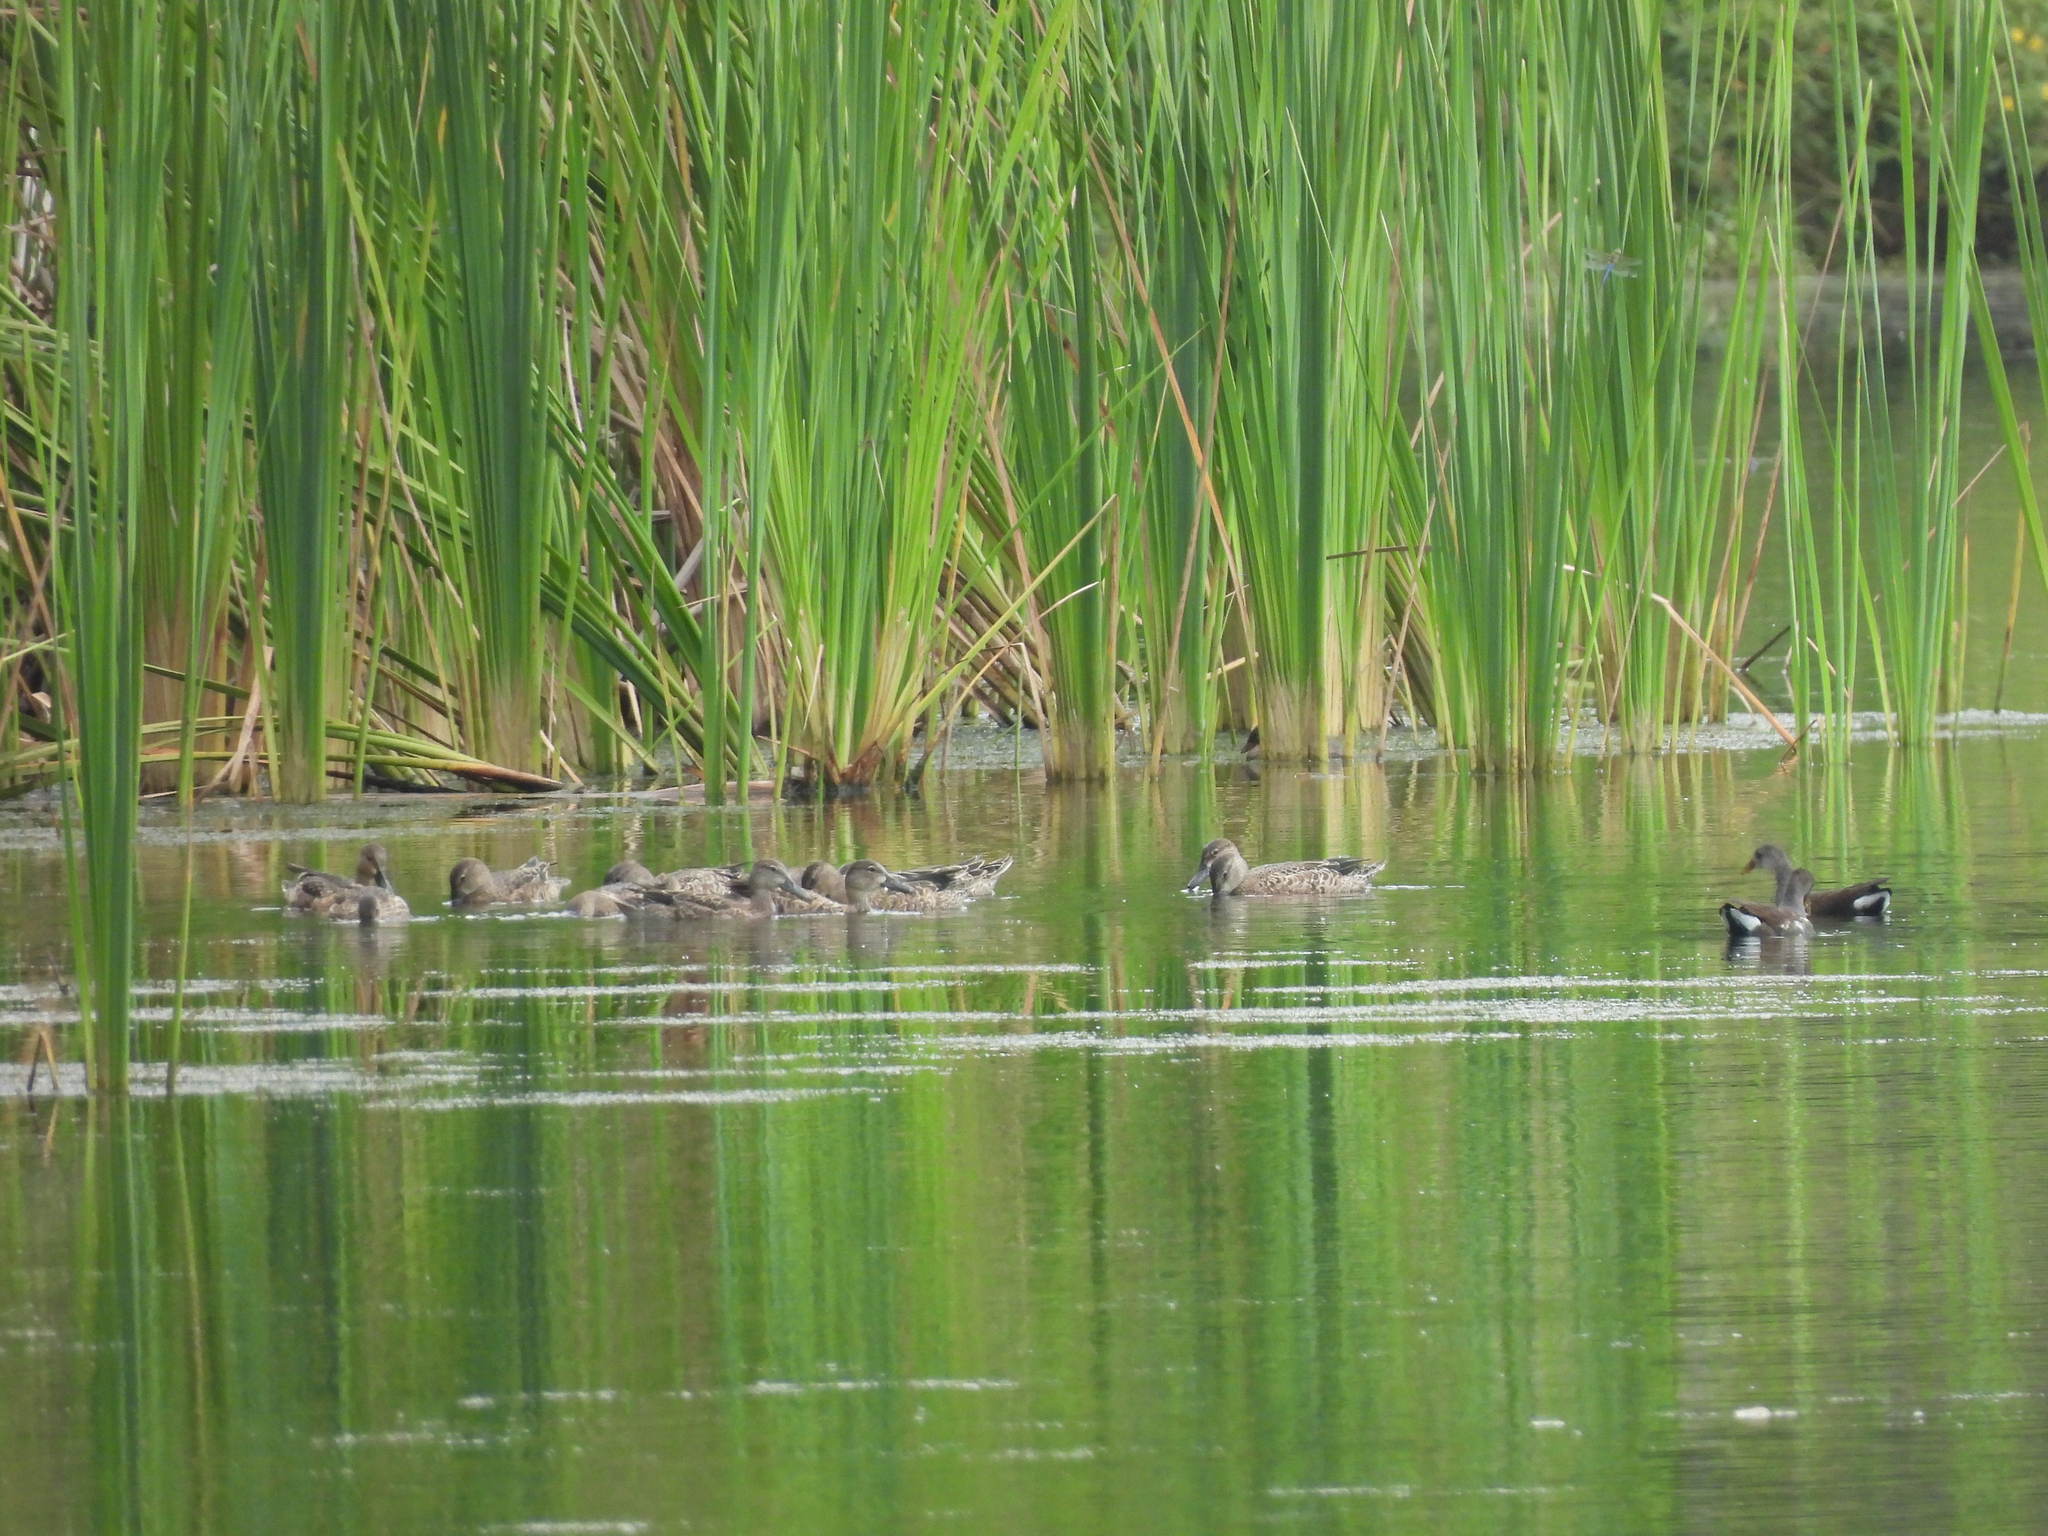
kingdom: Animalia
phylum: Chordata
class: Aves
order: Gruiformes
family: Rallidae
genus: Gallinula
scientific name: Gallinula chloropus
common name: Common moorhen
